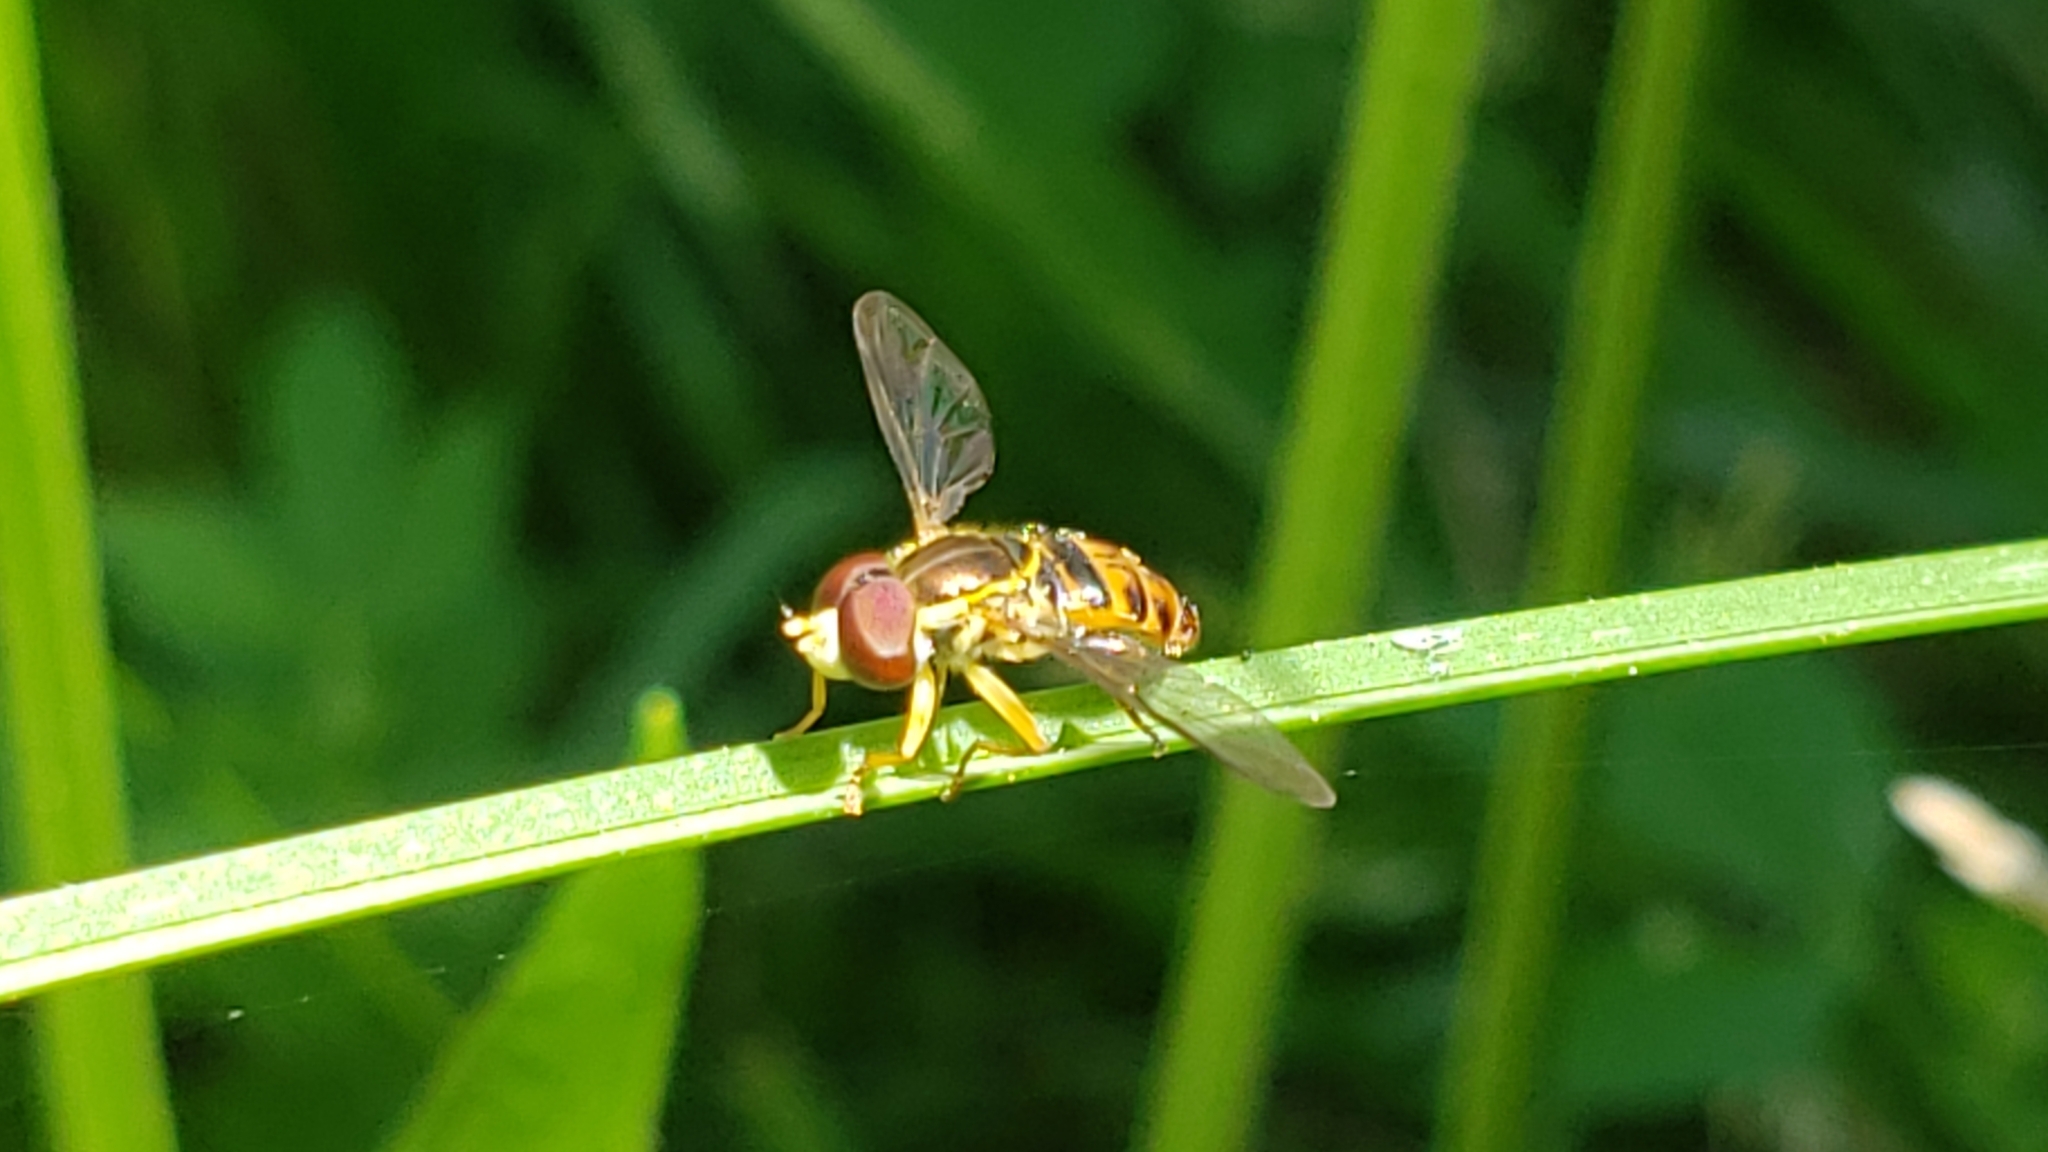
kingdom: Animalia
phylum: Arthropoda
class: Insecta
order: Diptera
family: Syrphidae
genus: Toxomerus
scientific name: Toxomerus occidentalis
